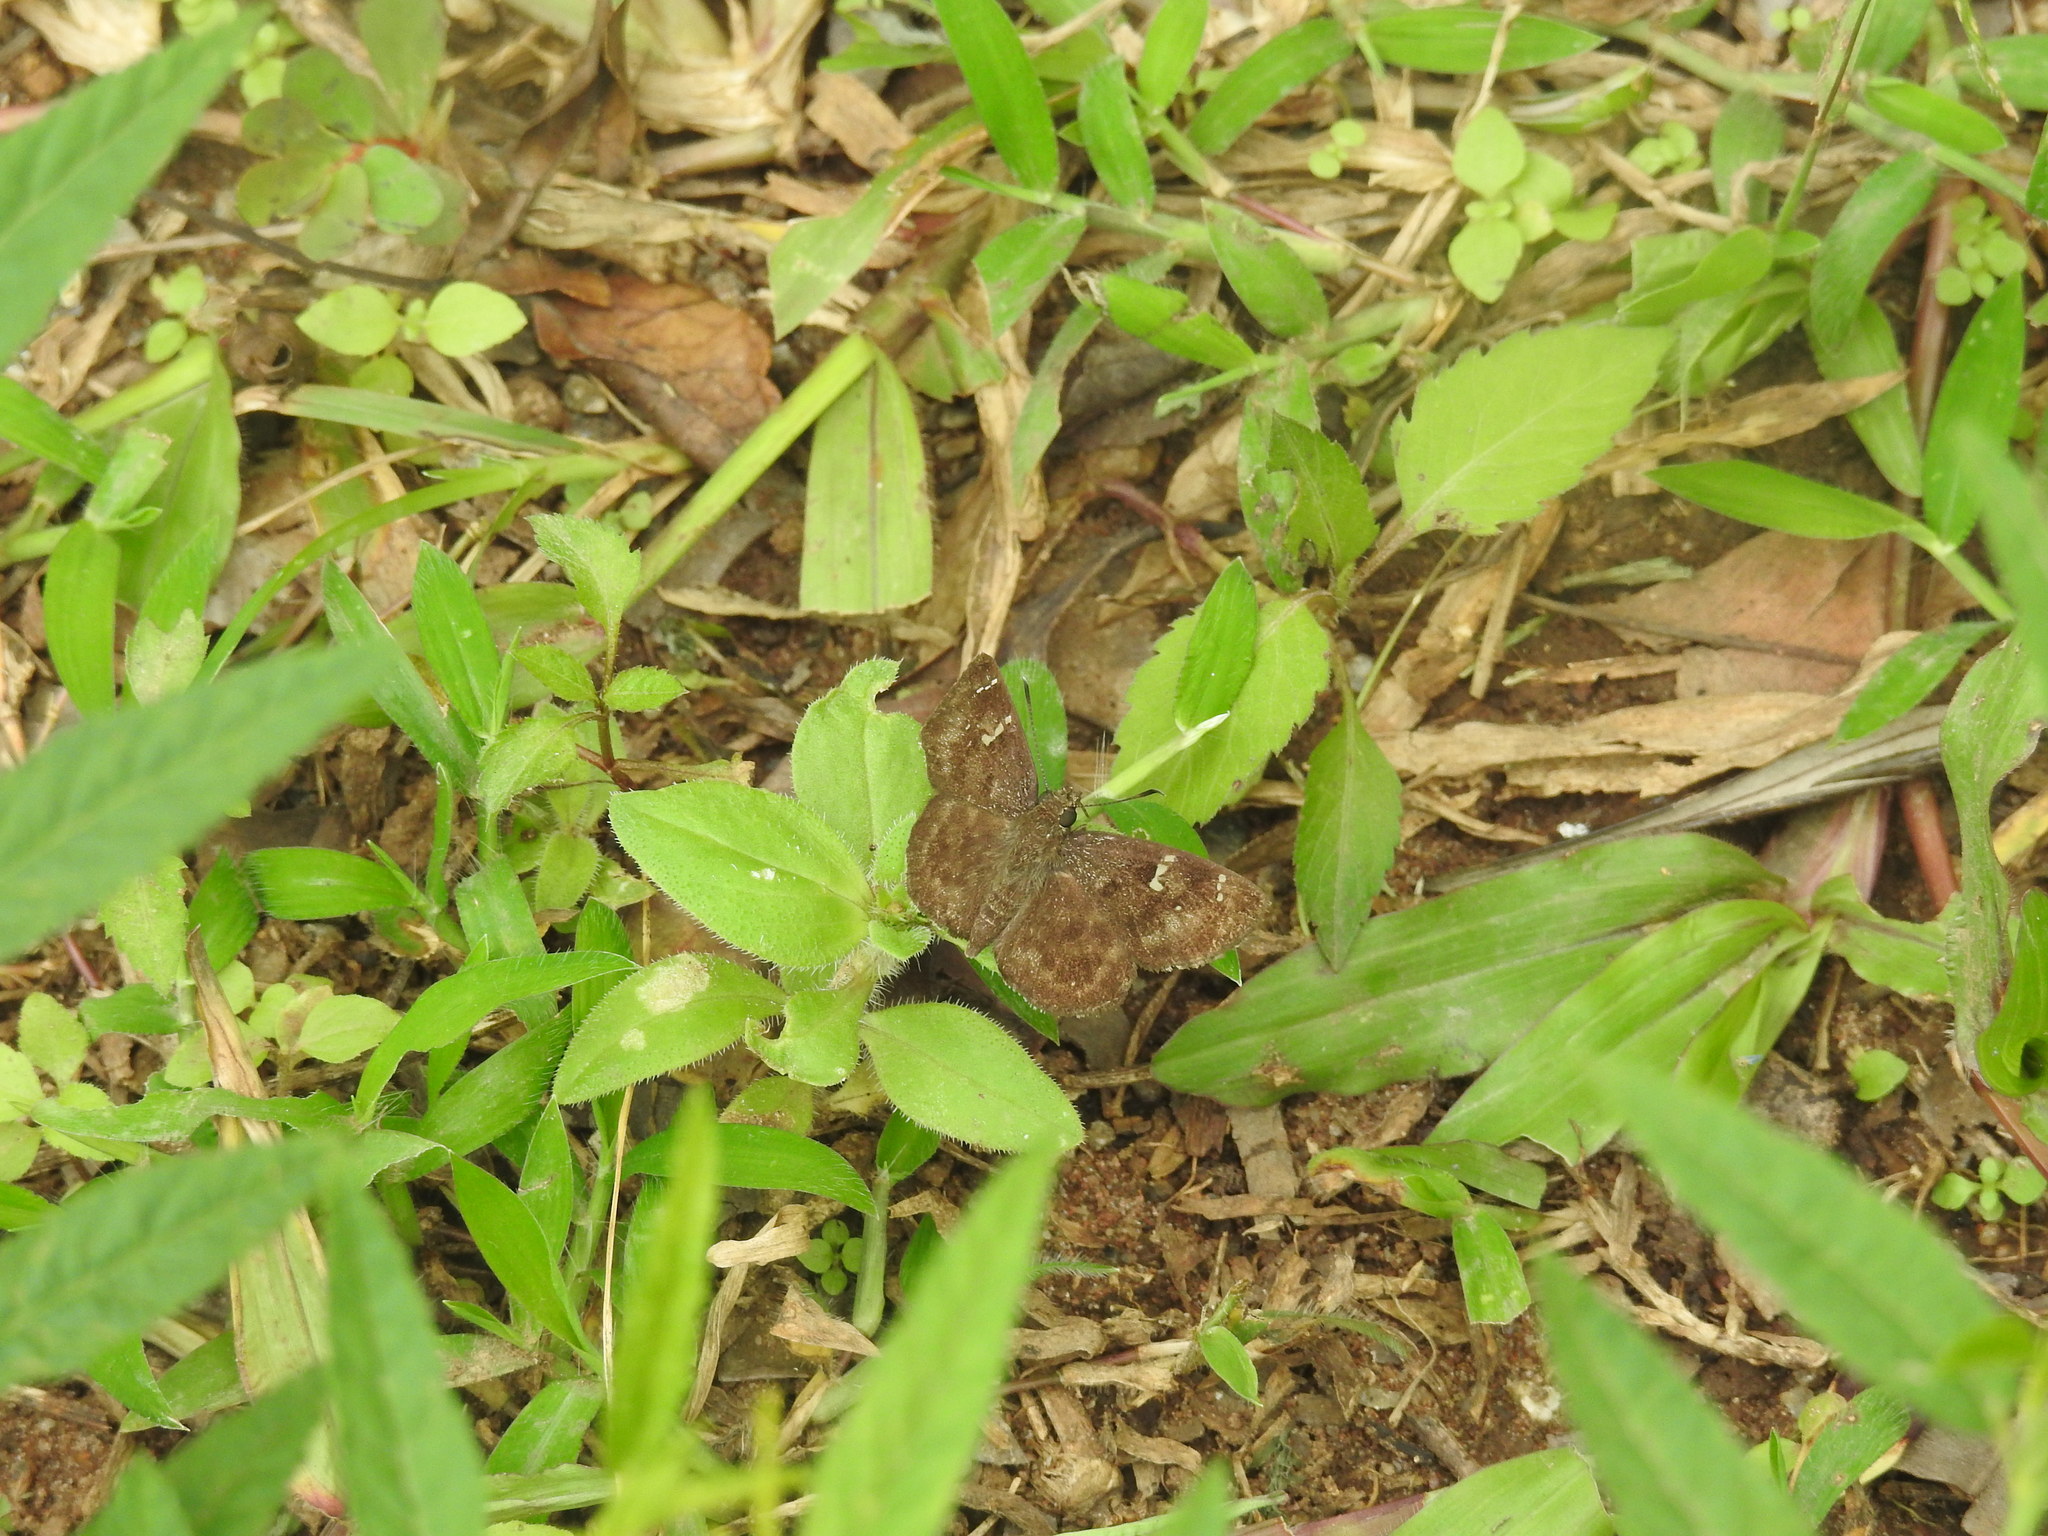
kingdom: Animalia
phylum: Arthropoda
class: Insecta
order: Lepidoptera
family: Hesperiidae
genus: Sarangesa
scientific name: Sarangesa dasahara
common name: Common small flat
